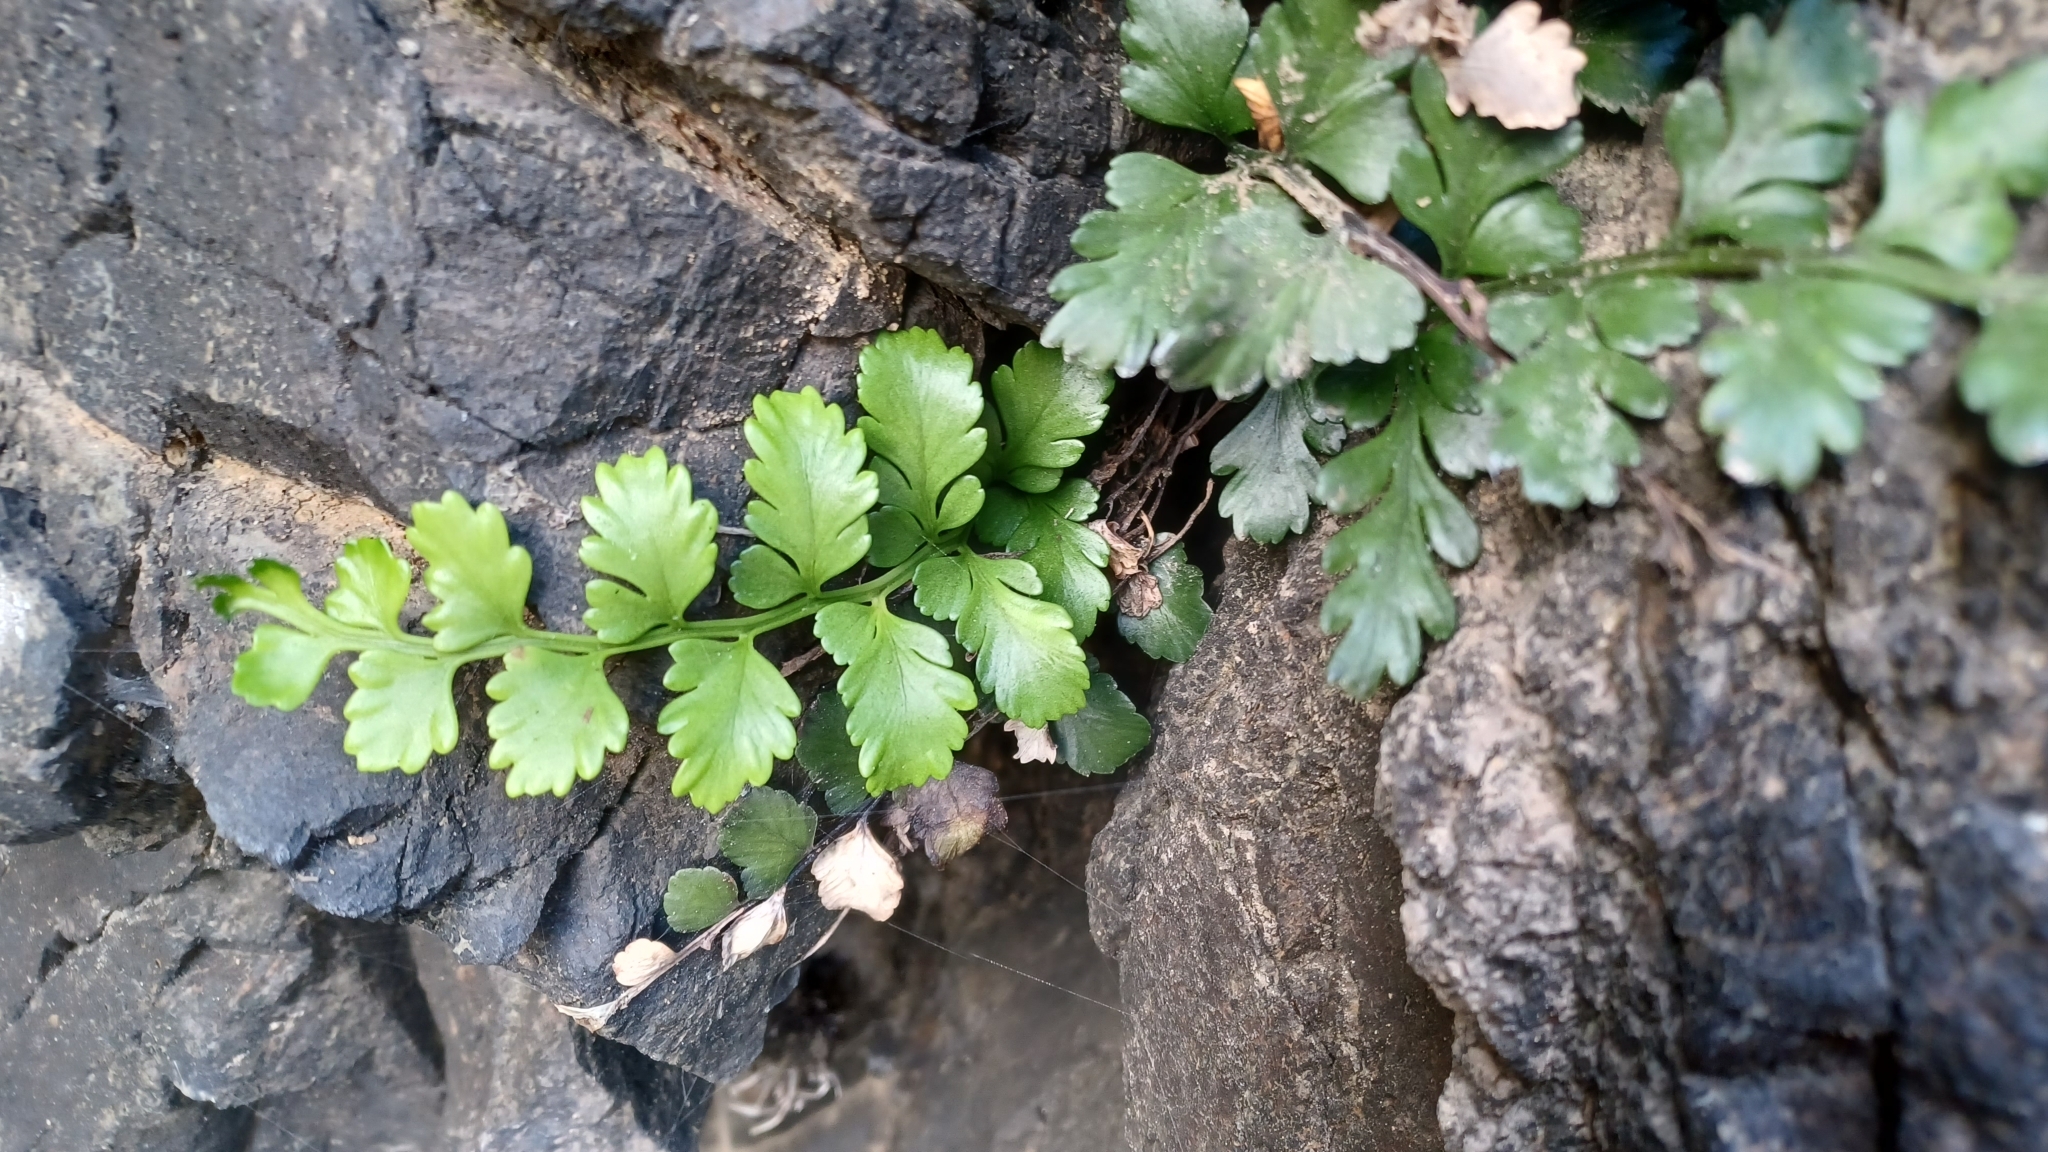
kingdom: Plantae
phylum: Tracheophyta
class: Polypodiopsida
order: Polypodiales
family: Aspleniaceae
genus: Asplenium
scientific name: Asplenium difforme
